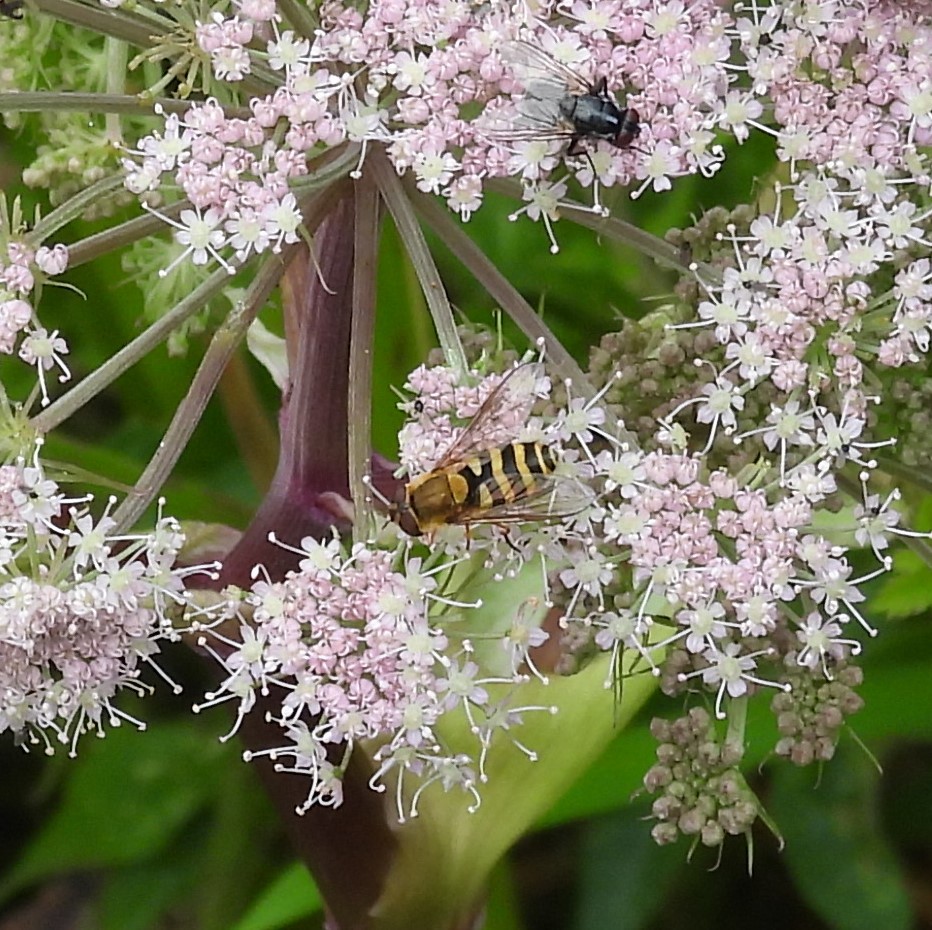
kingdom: Animalia
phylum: Arthropoda
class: Insecta
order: Diptera
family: Syrphidae
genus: Syrphus
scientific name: Syrphus
